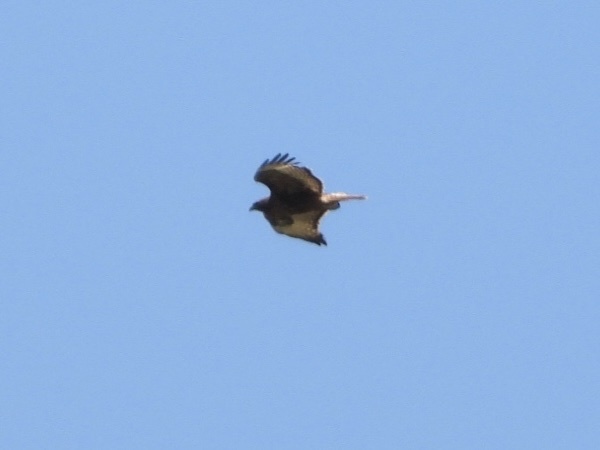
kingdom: Animalia
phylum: Chordata
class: Aves
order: Accipitriformes
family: Accipitridae
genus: Buteo
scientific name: Buteo jamaicensis
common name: Red-tailed hawk
